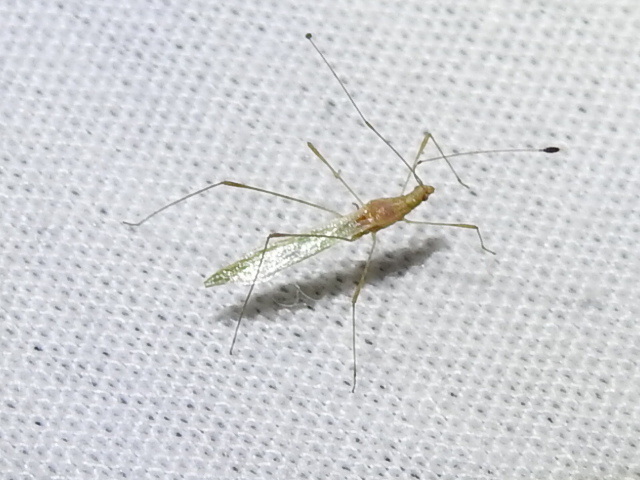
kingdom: Animalia
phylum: Arthropoda
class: Insecta
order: Hemiptera
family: Berytidae
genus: Metacanthus
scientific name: Metacanthus multispinus
